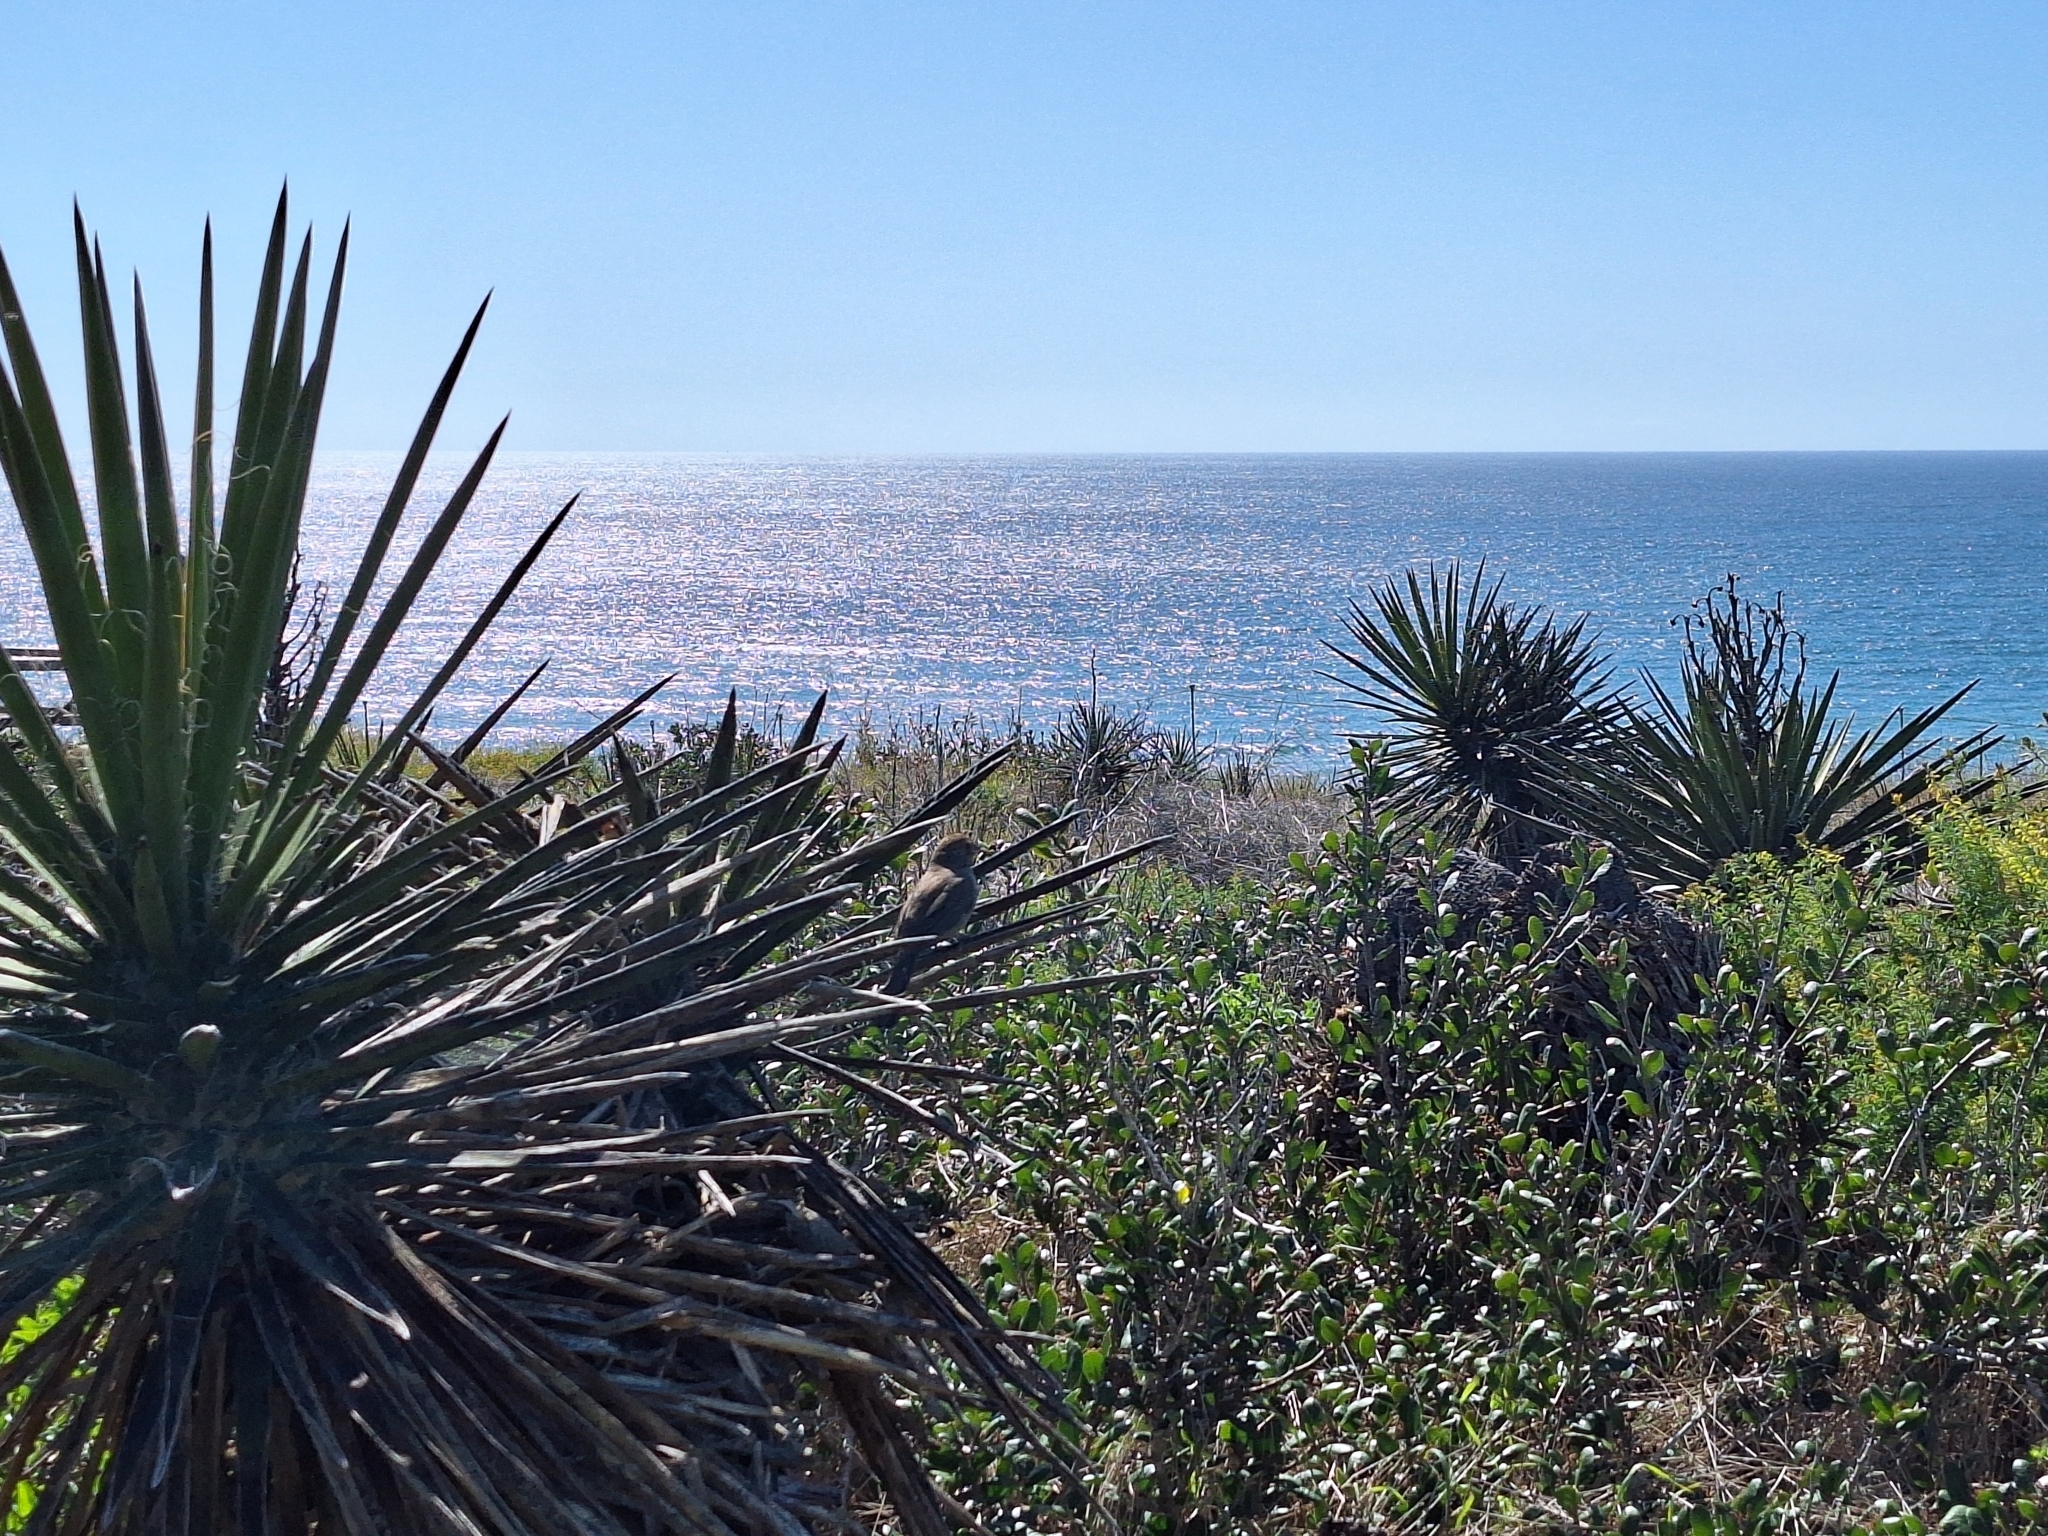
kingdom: Animalia
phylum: Chordata
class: Aves
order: Passeriformes
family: Passerellidae
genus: Melozone
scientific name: Melozone crissalis
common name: California towhee
